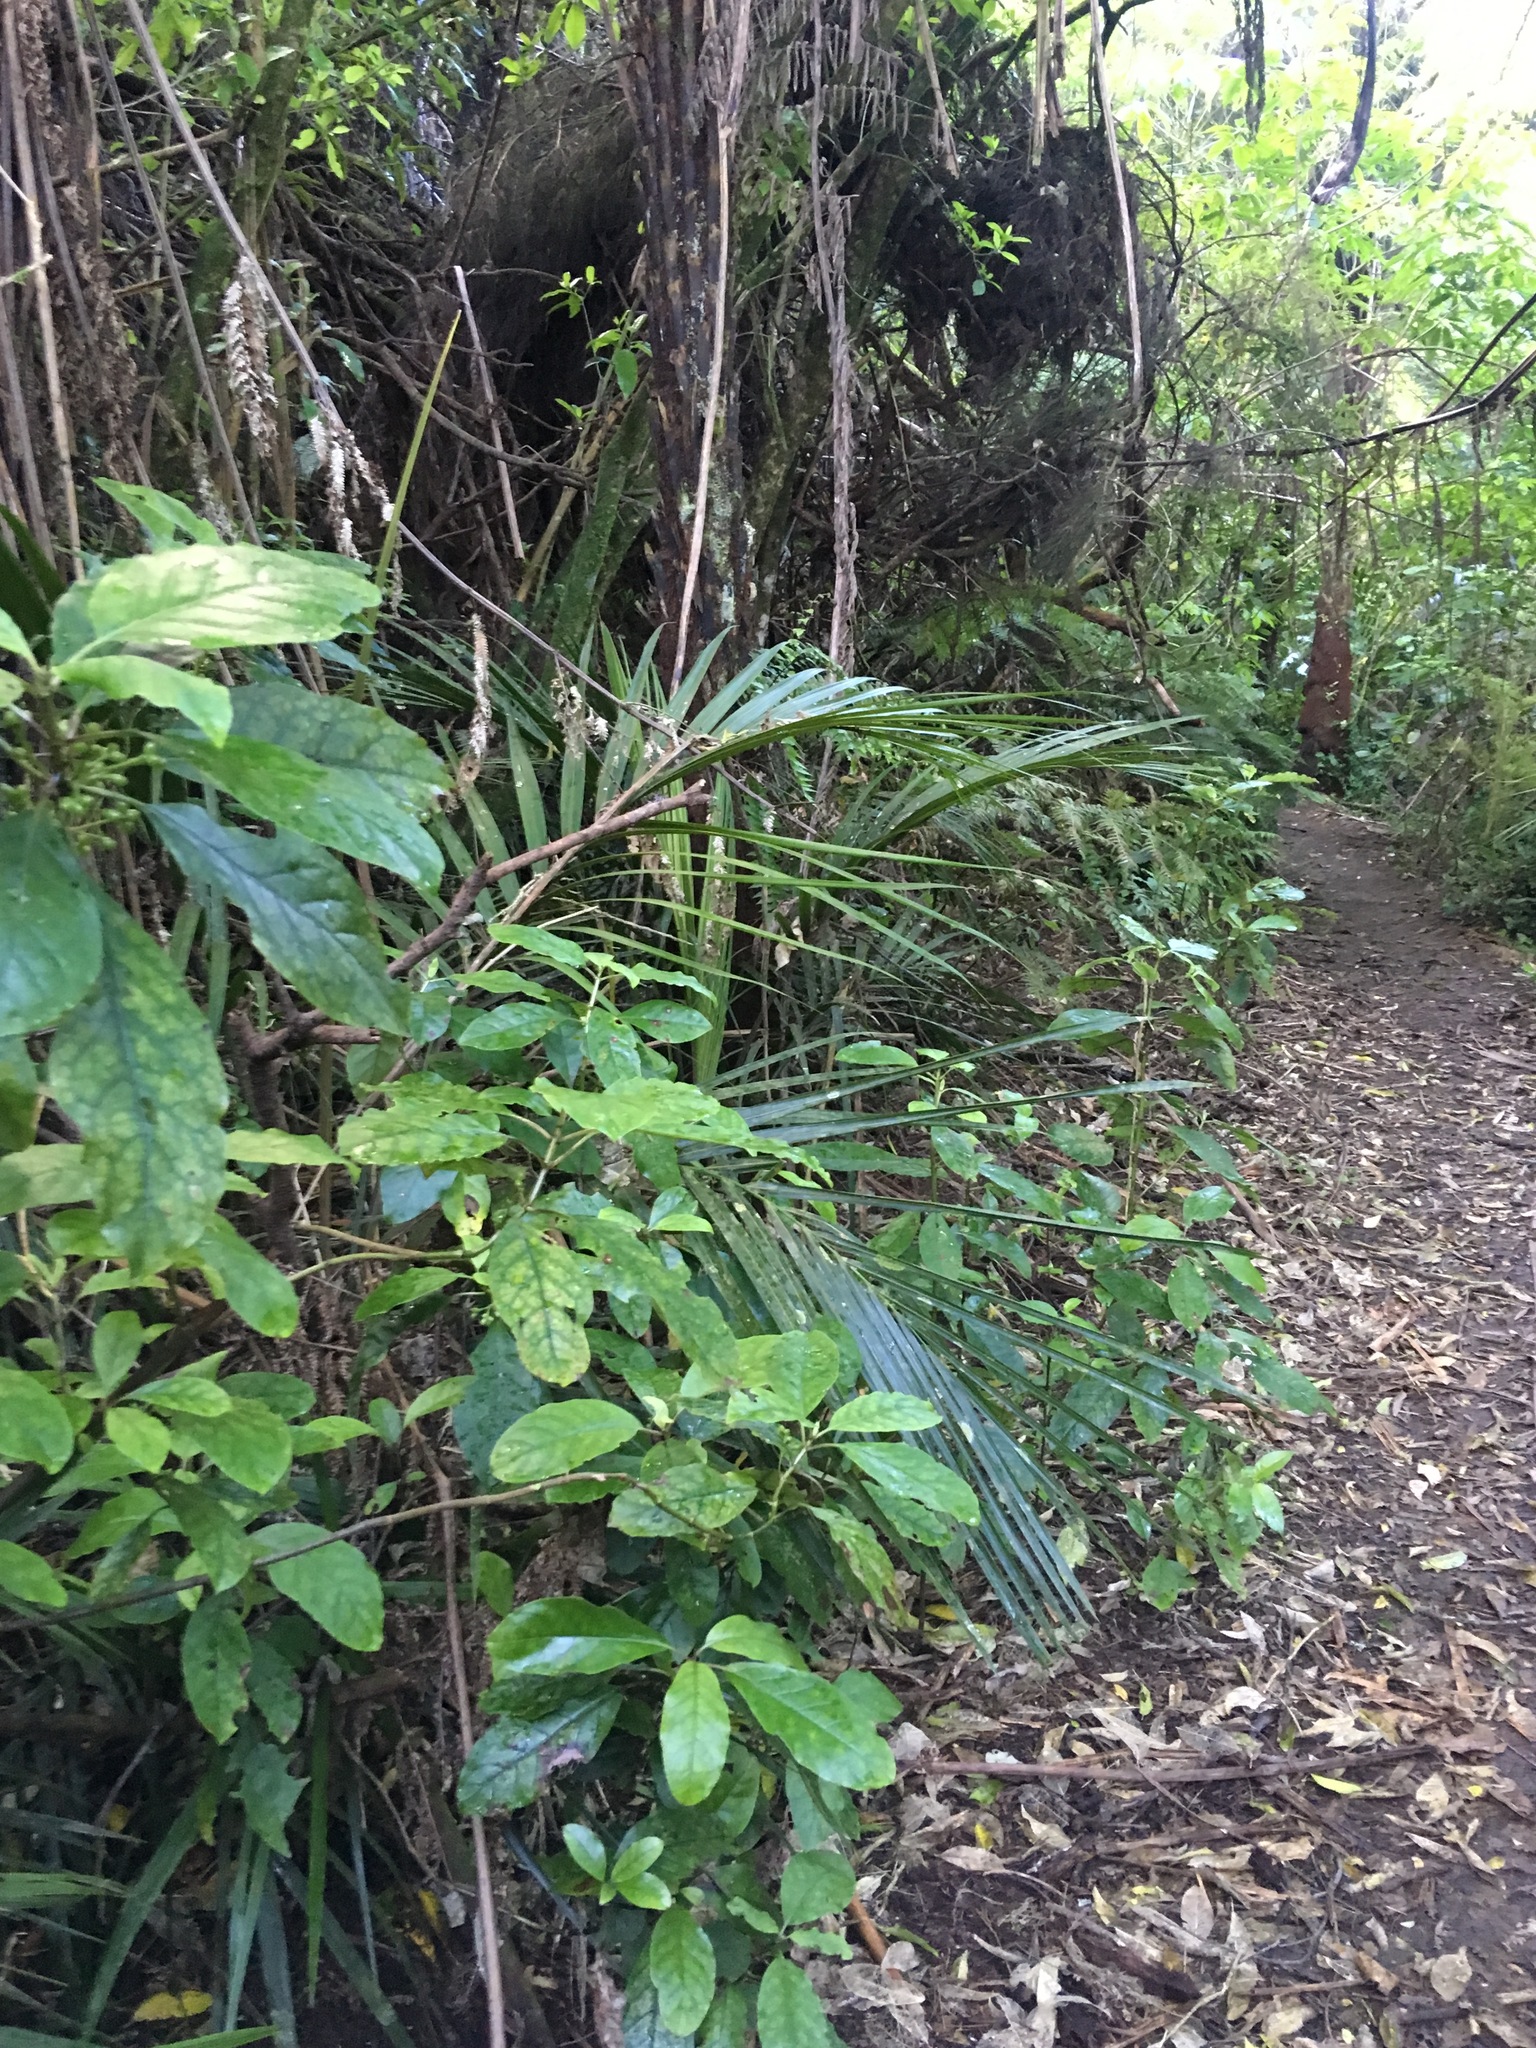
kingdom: Plantae
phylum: Tracheophyta
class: Magnoliopsida
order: Gentianales
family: Rubiaceae
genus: Coprosma
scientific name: Coprosma autumnalis
